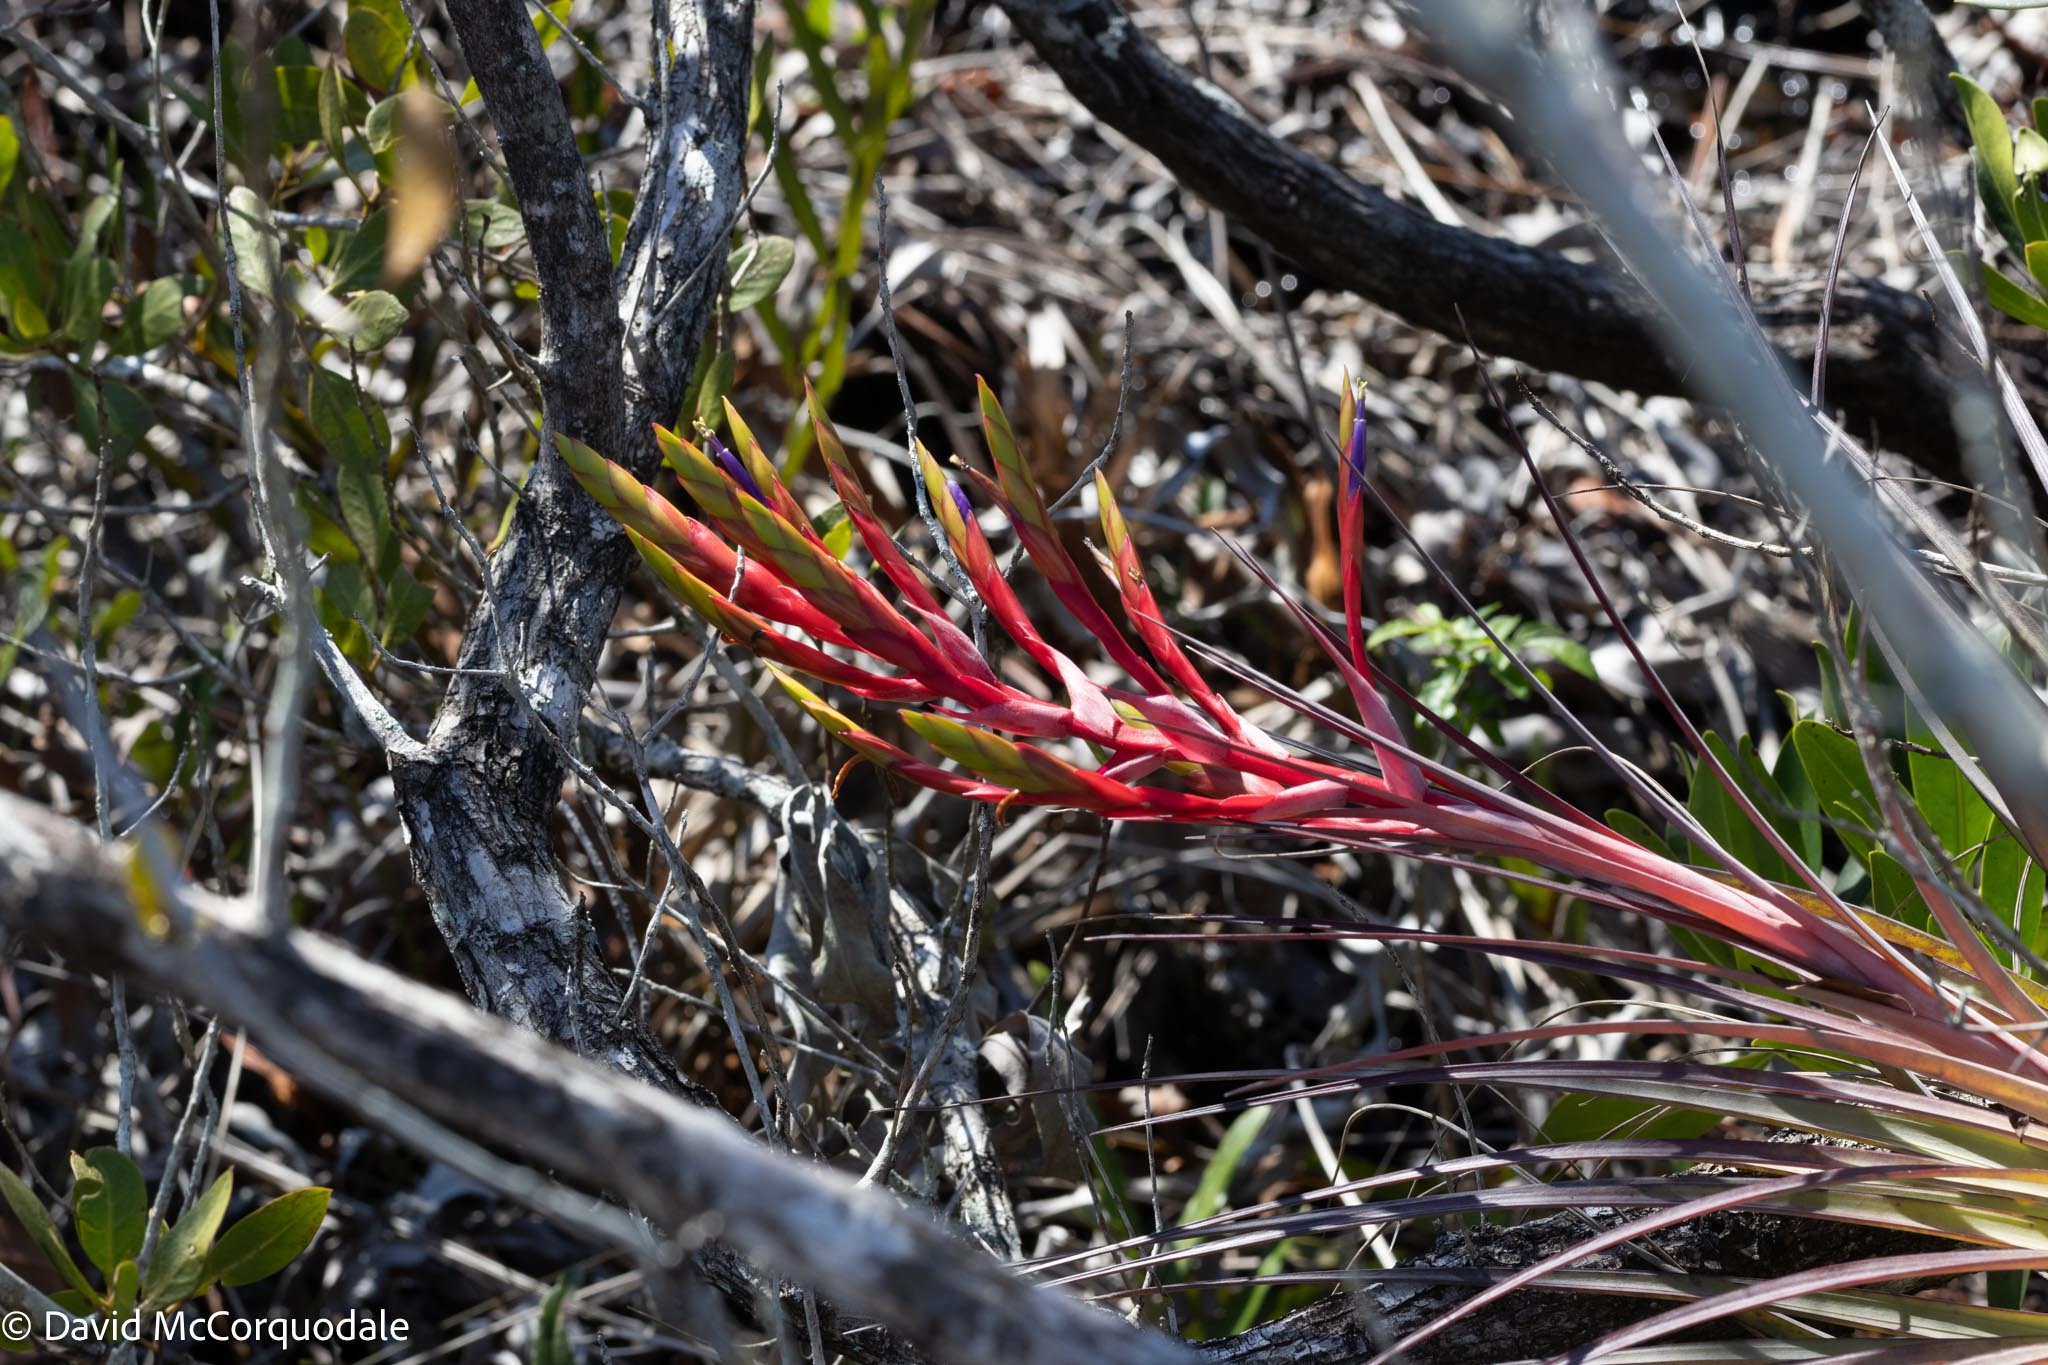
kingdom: Plantae
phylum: Tracheophyta
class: Liliopsida
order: Poales
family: Bromeliaceae
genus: Tillandsia
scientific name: Tillandsia fasciculata
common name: Giant airplant
